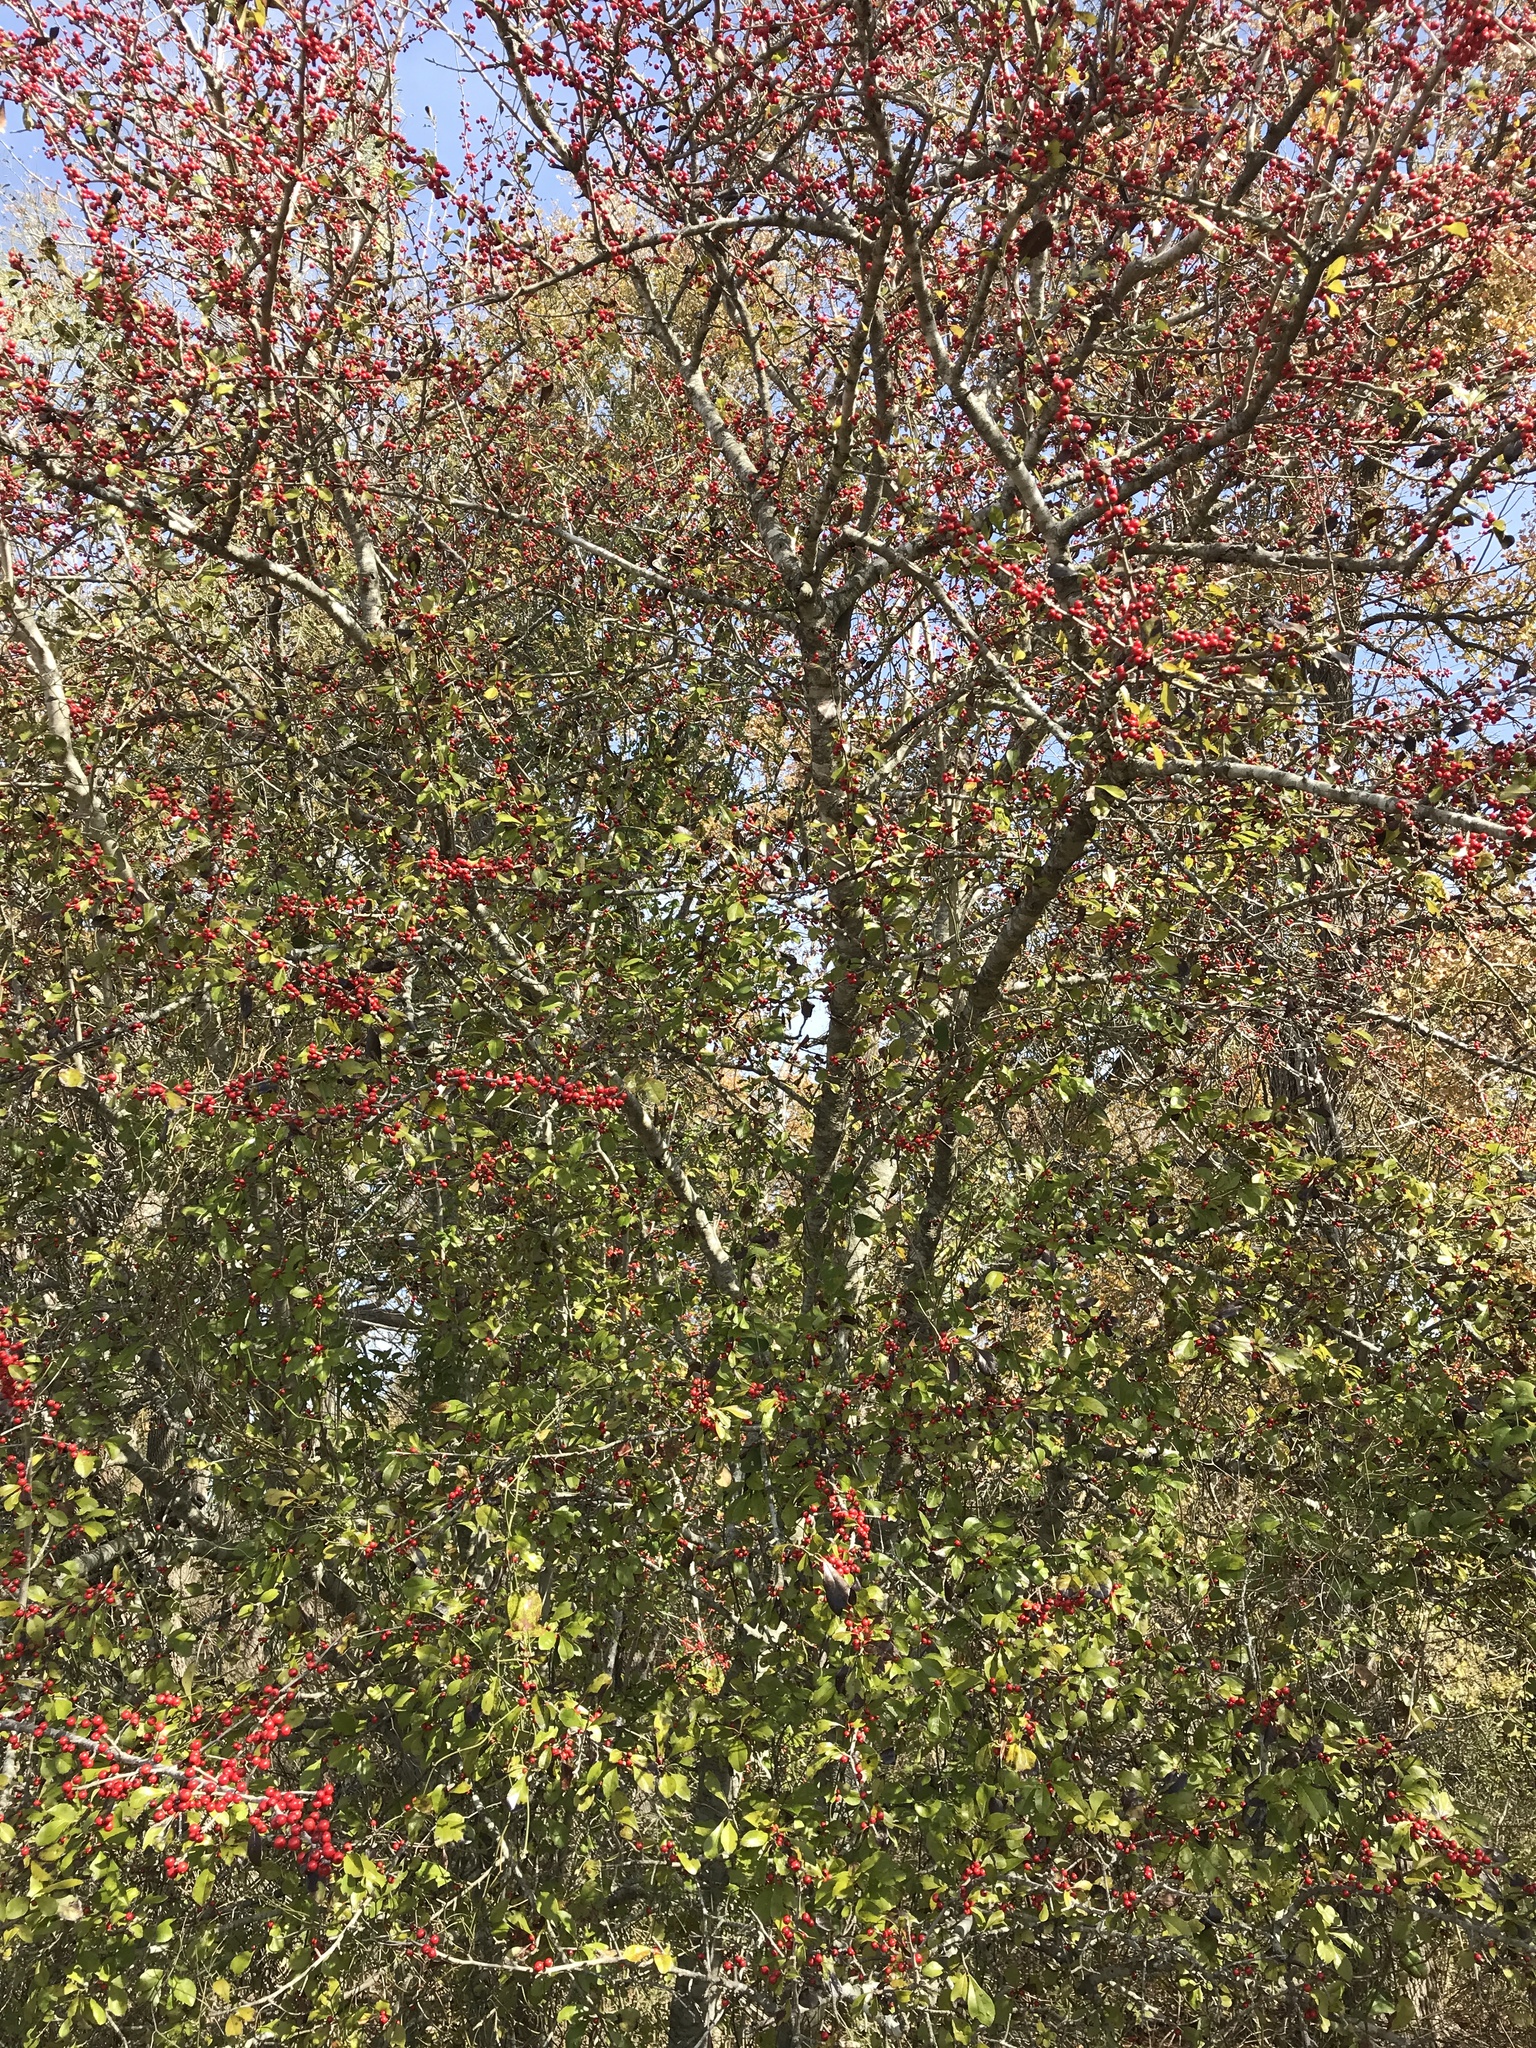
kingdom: Plantae
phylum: Tracheophyta
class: Magnoliopsida
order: Aquifoliales
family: Aquifoliaceae
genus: Ilex
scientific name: Ilex decidua
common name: Possum-haw
